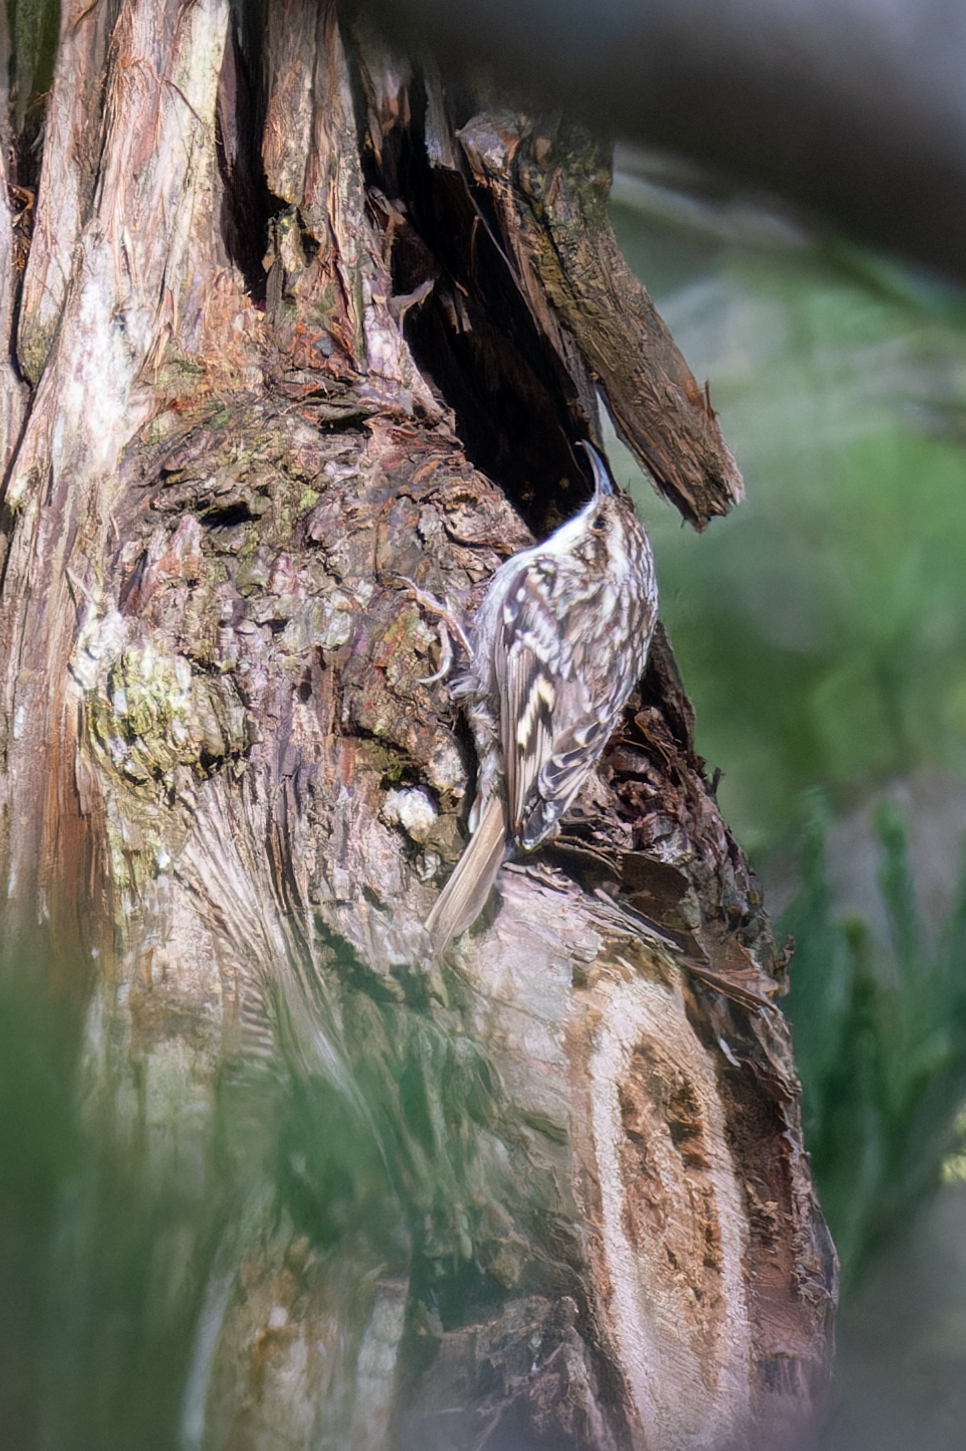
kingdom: Animalia
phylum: Chordata
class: Aves
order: Passeriformes
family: Certhiidae
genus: Certhia
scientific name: Certhia brachydactyla
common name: Short-toed treecreeper
